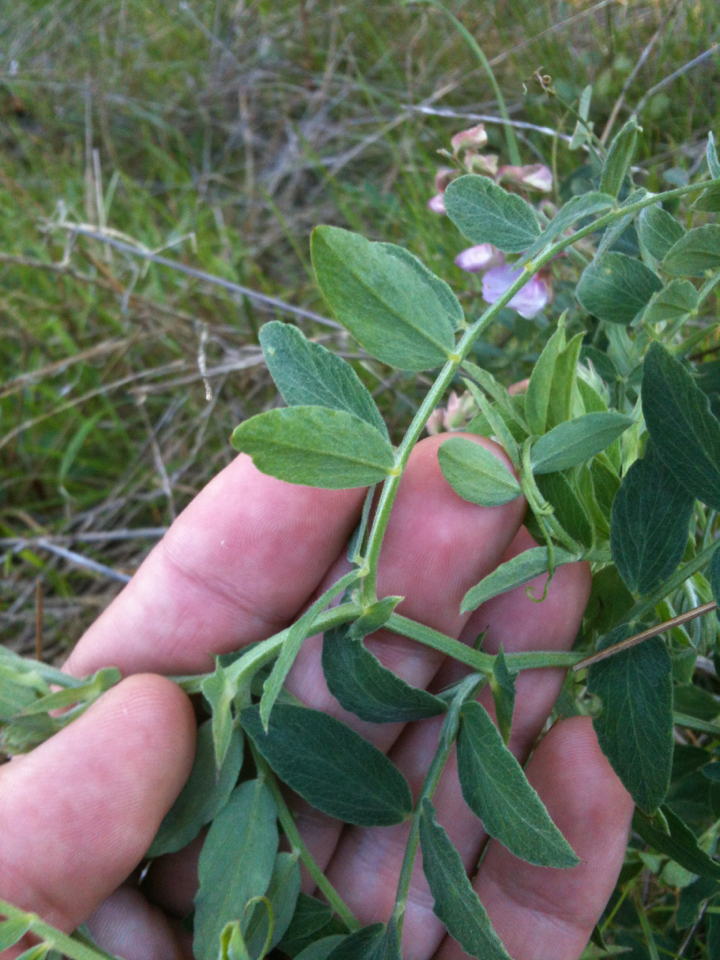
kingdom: Plantae
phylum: Tracheophyta
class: Magnoliopsida
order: Fabales
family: Fabaceae
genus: Lathyrus
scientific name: Lathyrus vestitus
